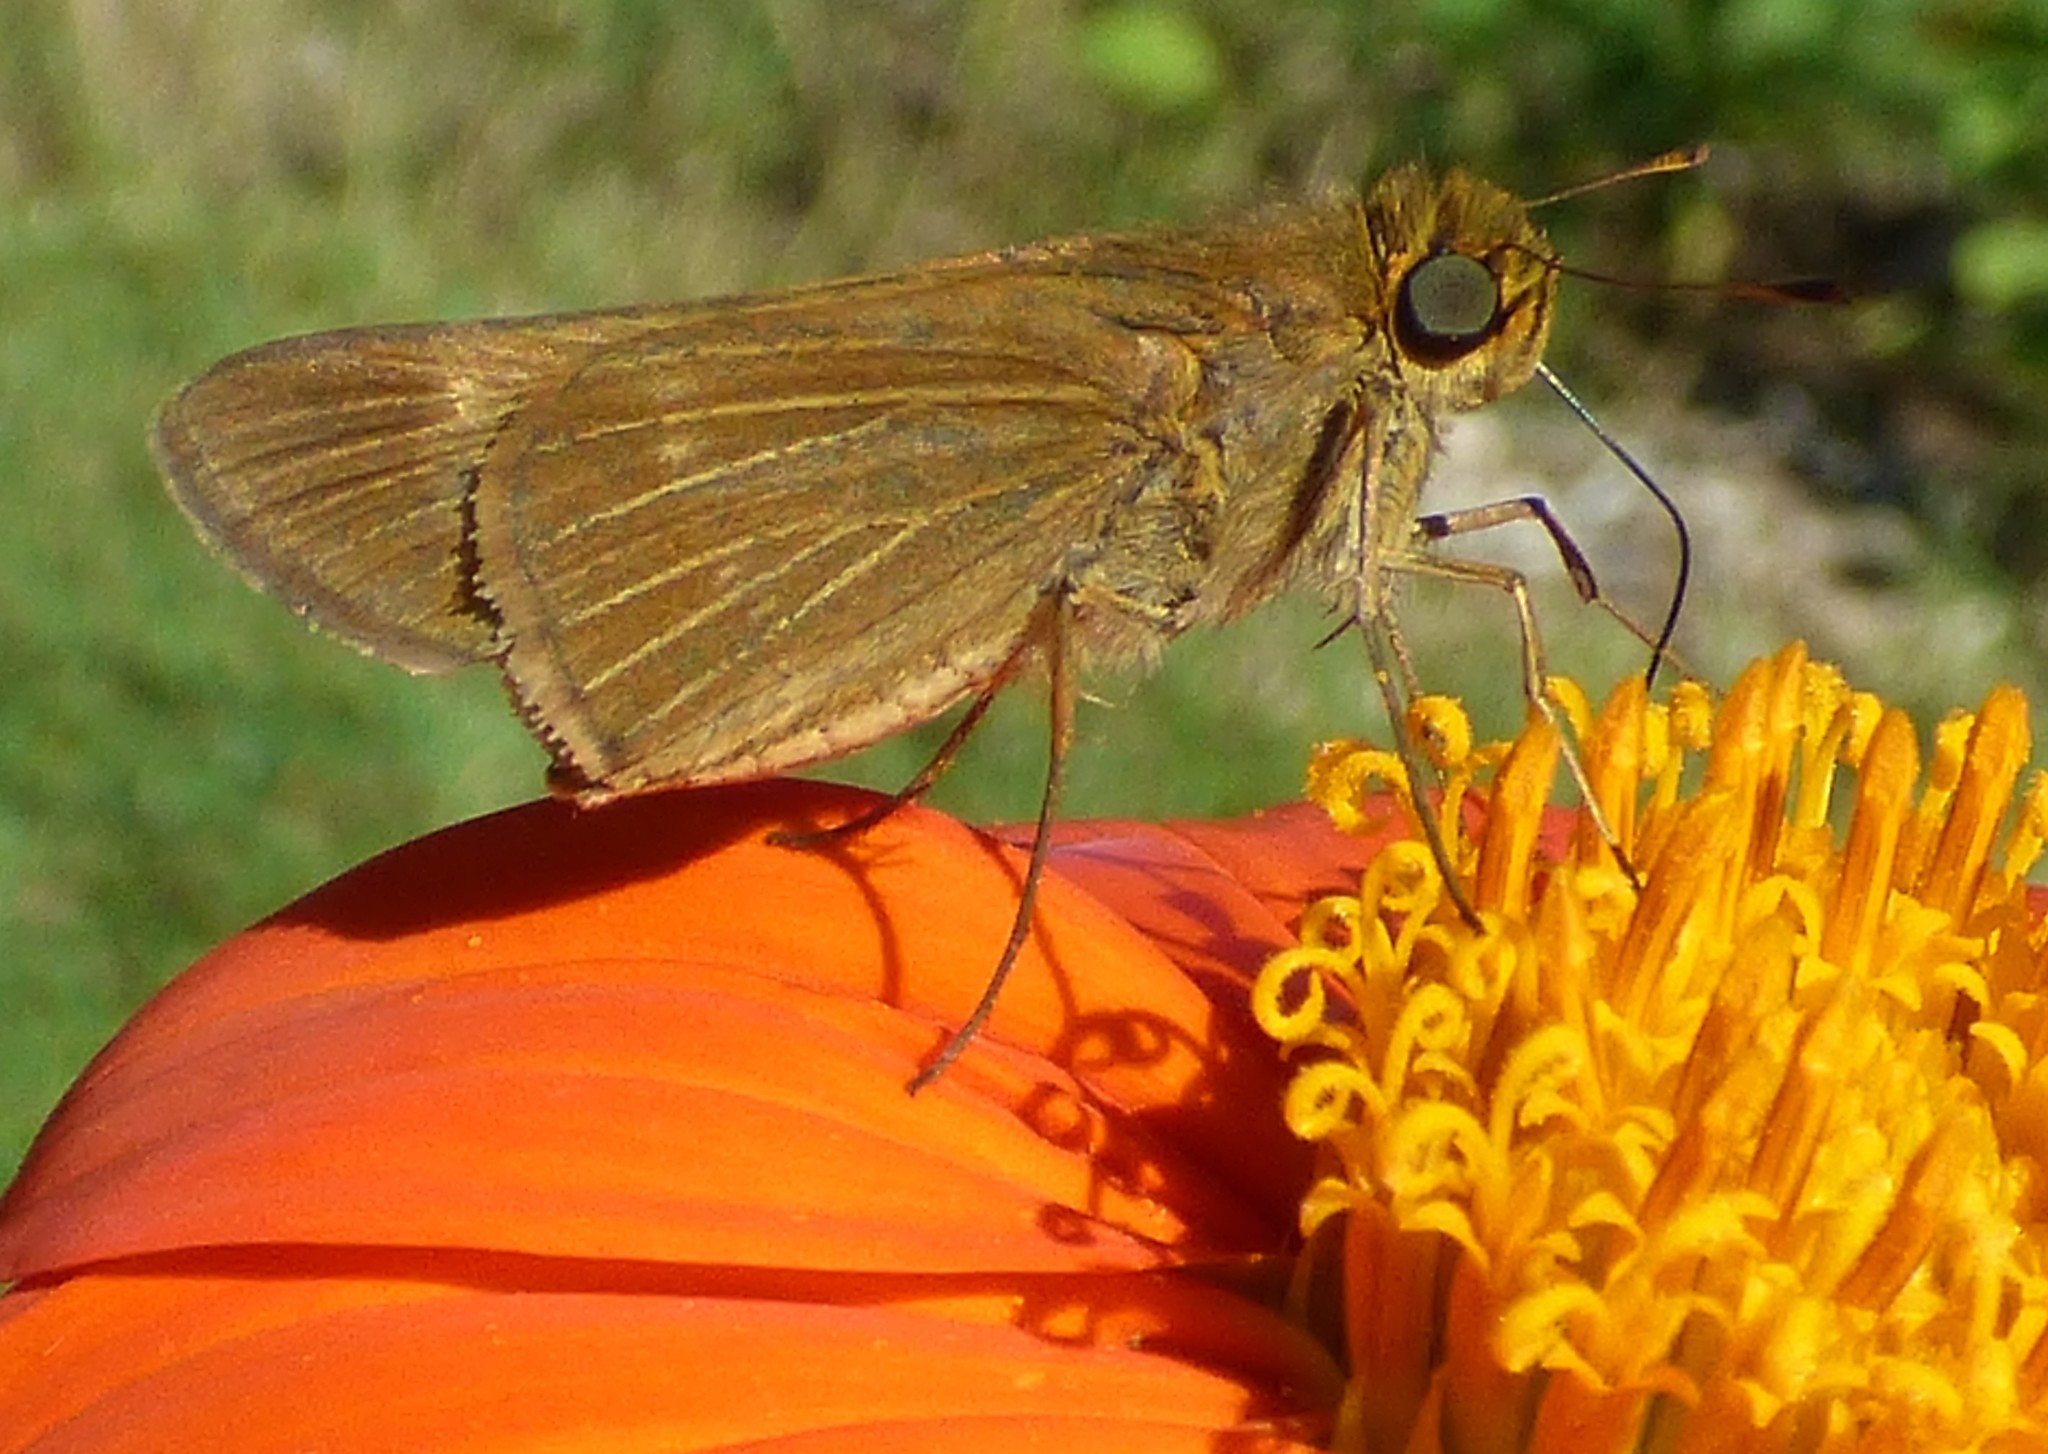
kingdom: Animalia
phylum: Arthropoda
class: Insecta
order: Lepidoptera
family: Hesperiidae
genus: Panoquina
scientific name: Panoquina ocola
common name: Ocola skipper
